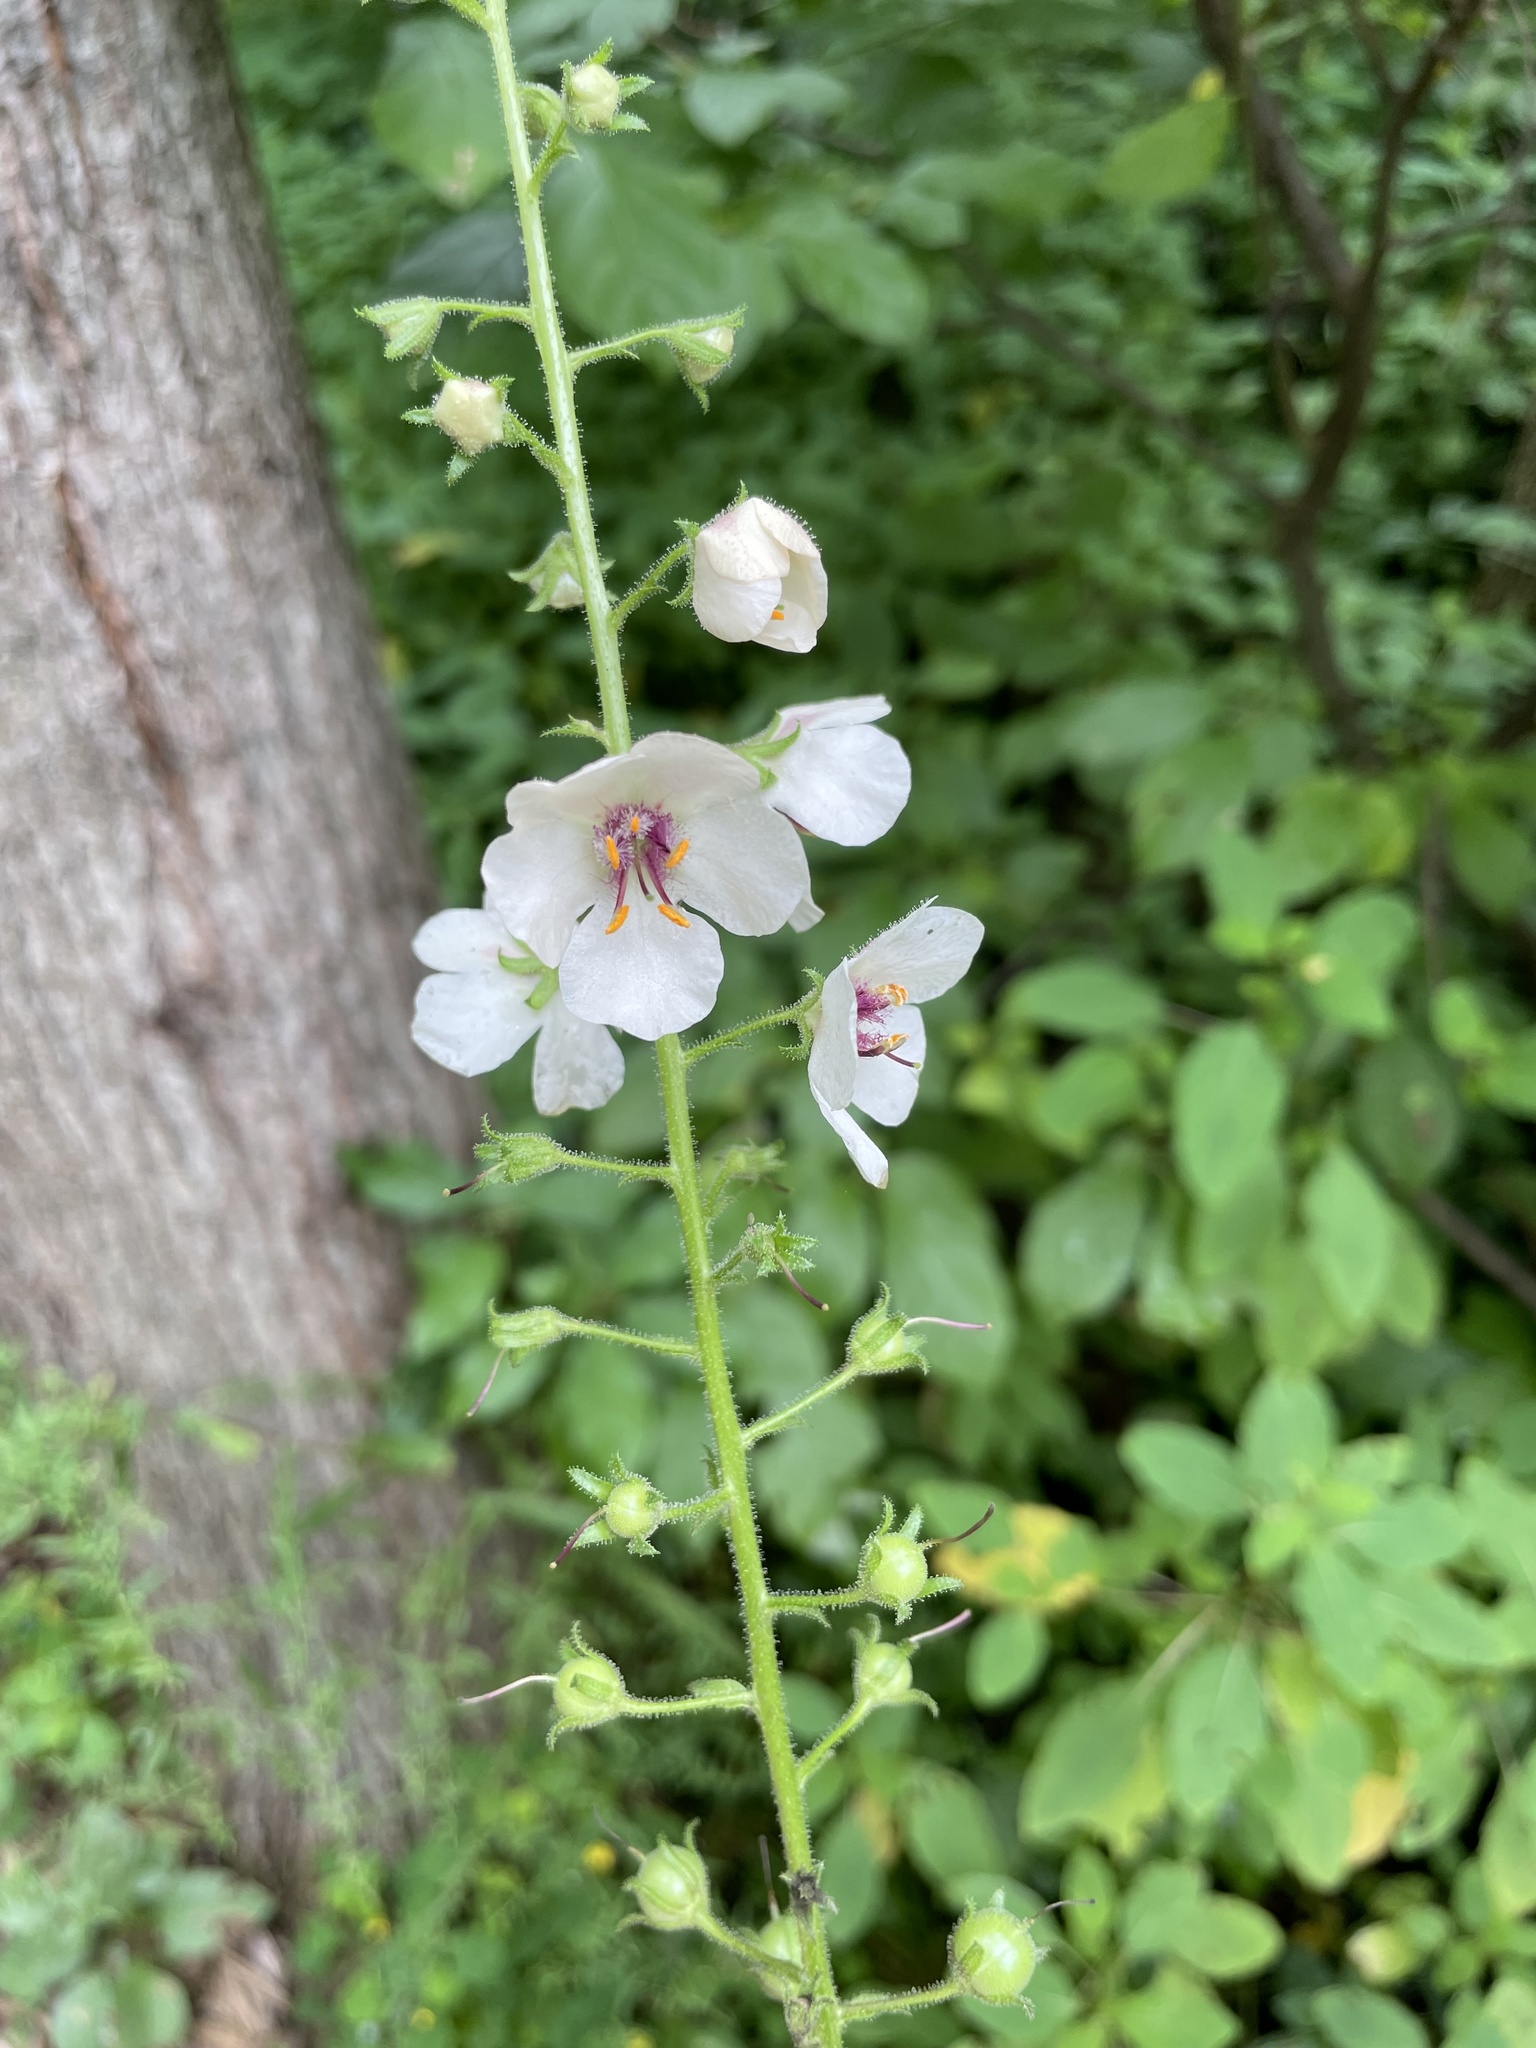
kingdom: Plantae
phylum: Tracheophyta
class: Magnoliopsida
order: Lamiales
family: Scrophulariaceae
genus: Verbascum
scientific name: Verbascum blattaria
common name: Moth mullein
